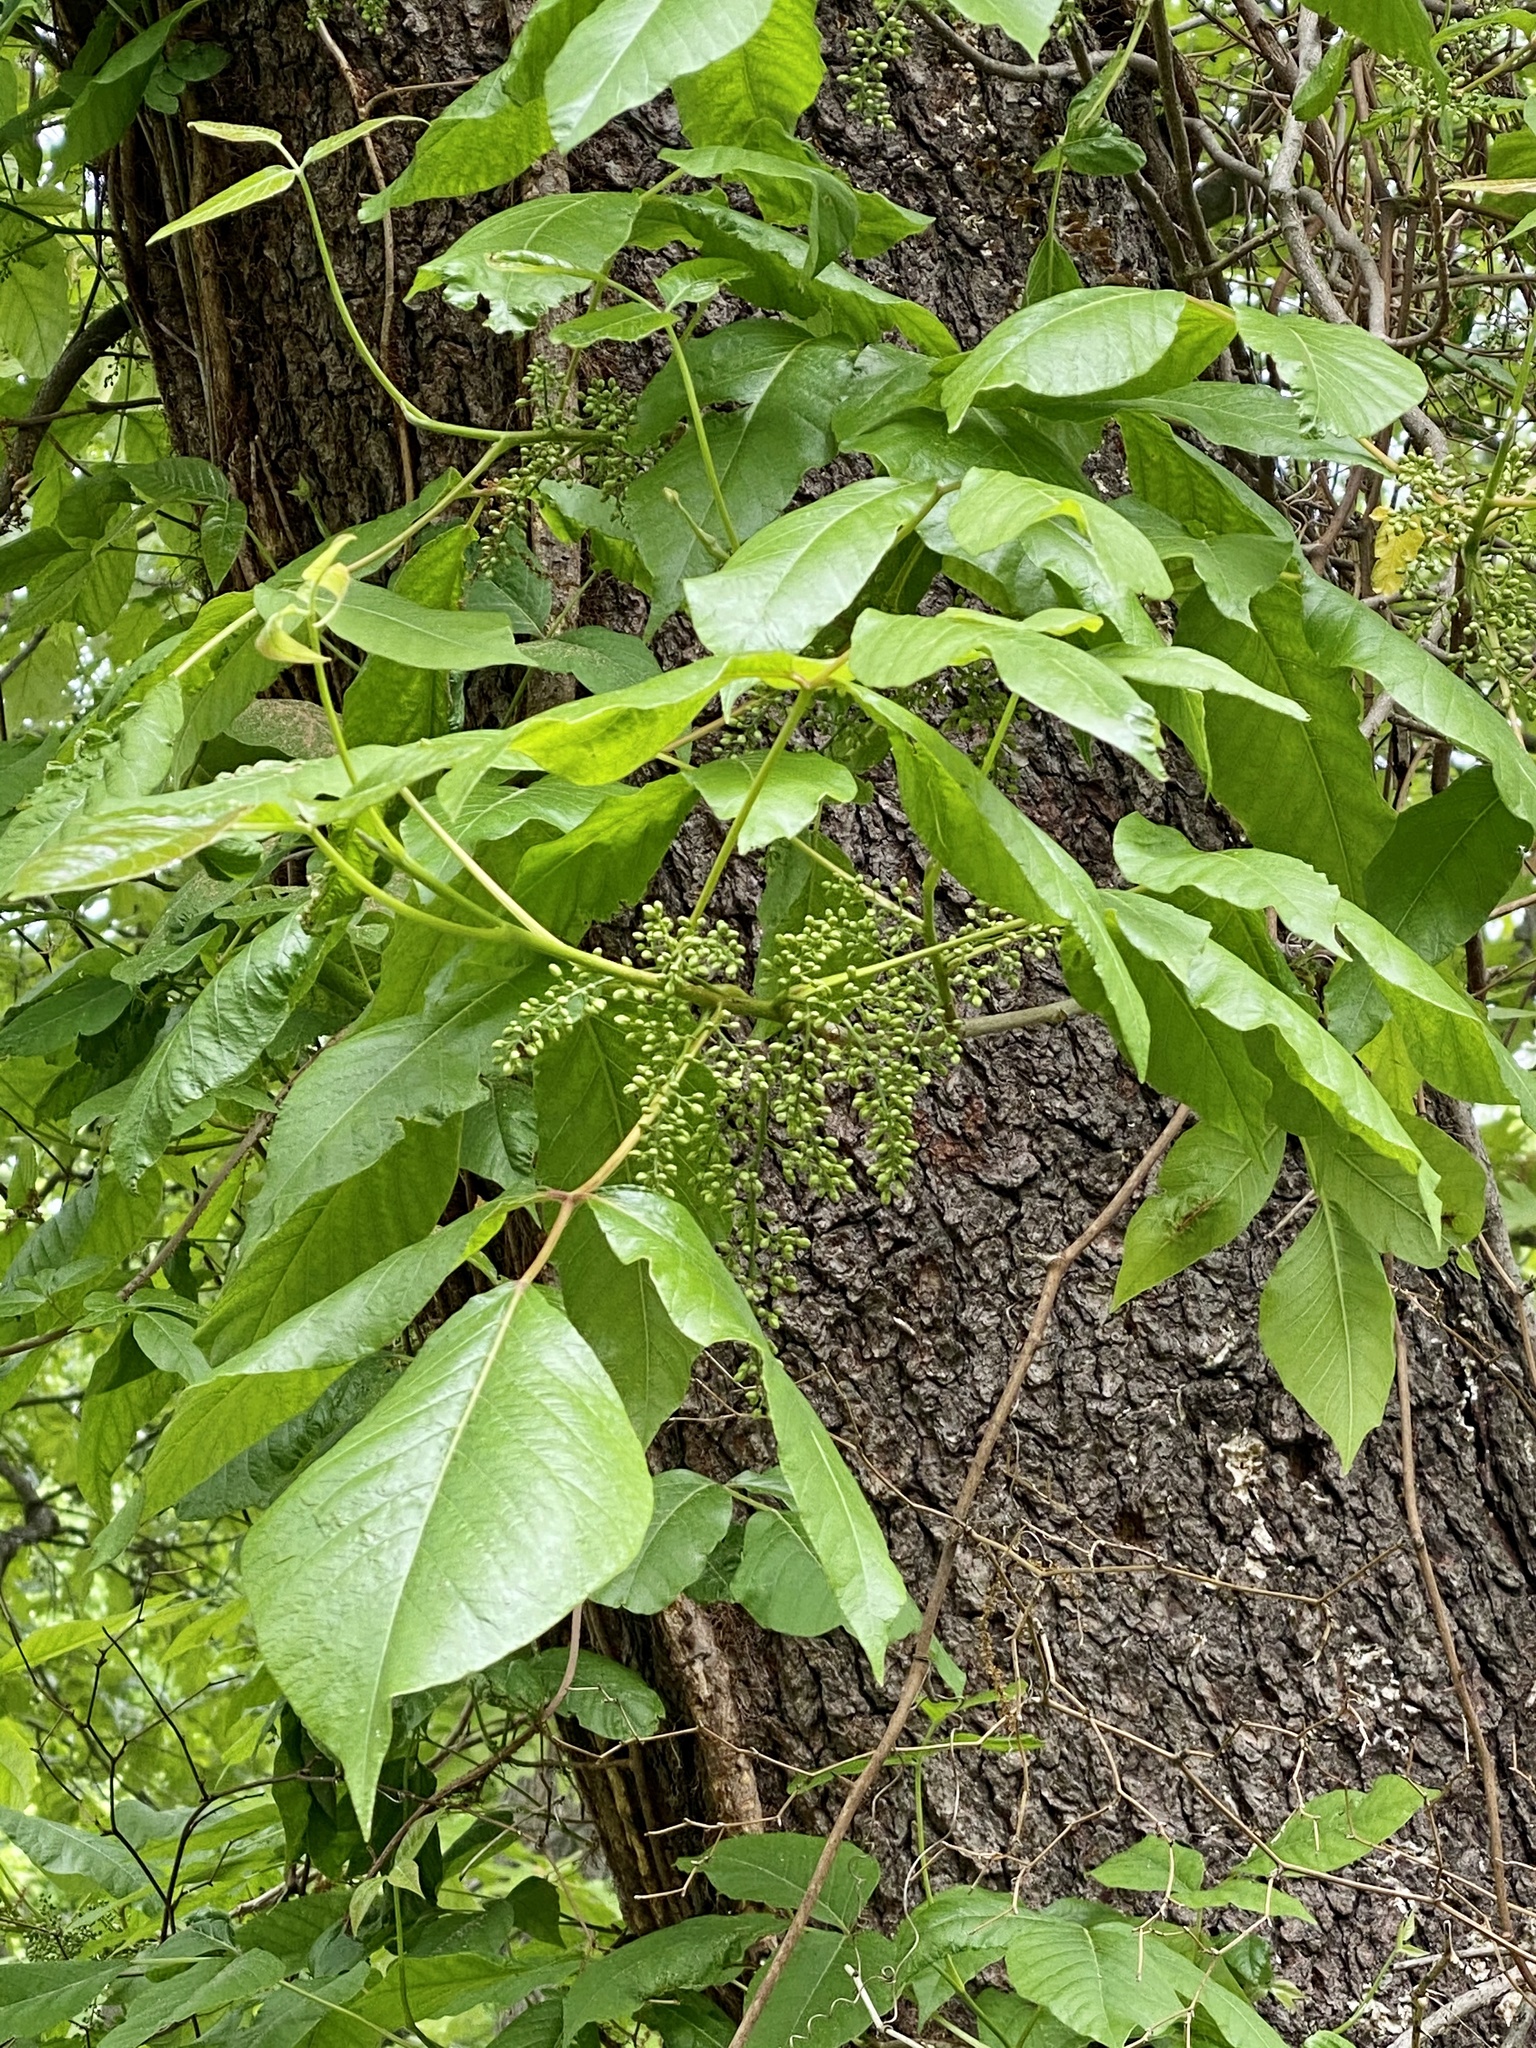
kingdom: Plantae
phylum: Tracheophyta
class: Magnoliopsida
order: Sapindales
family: Anacardiaceae
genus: Toxicodendron
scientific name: Toxicodendron radicans
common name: Poison ivy
